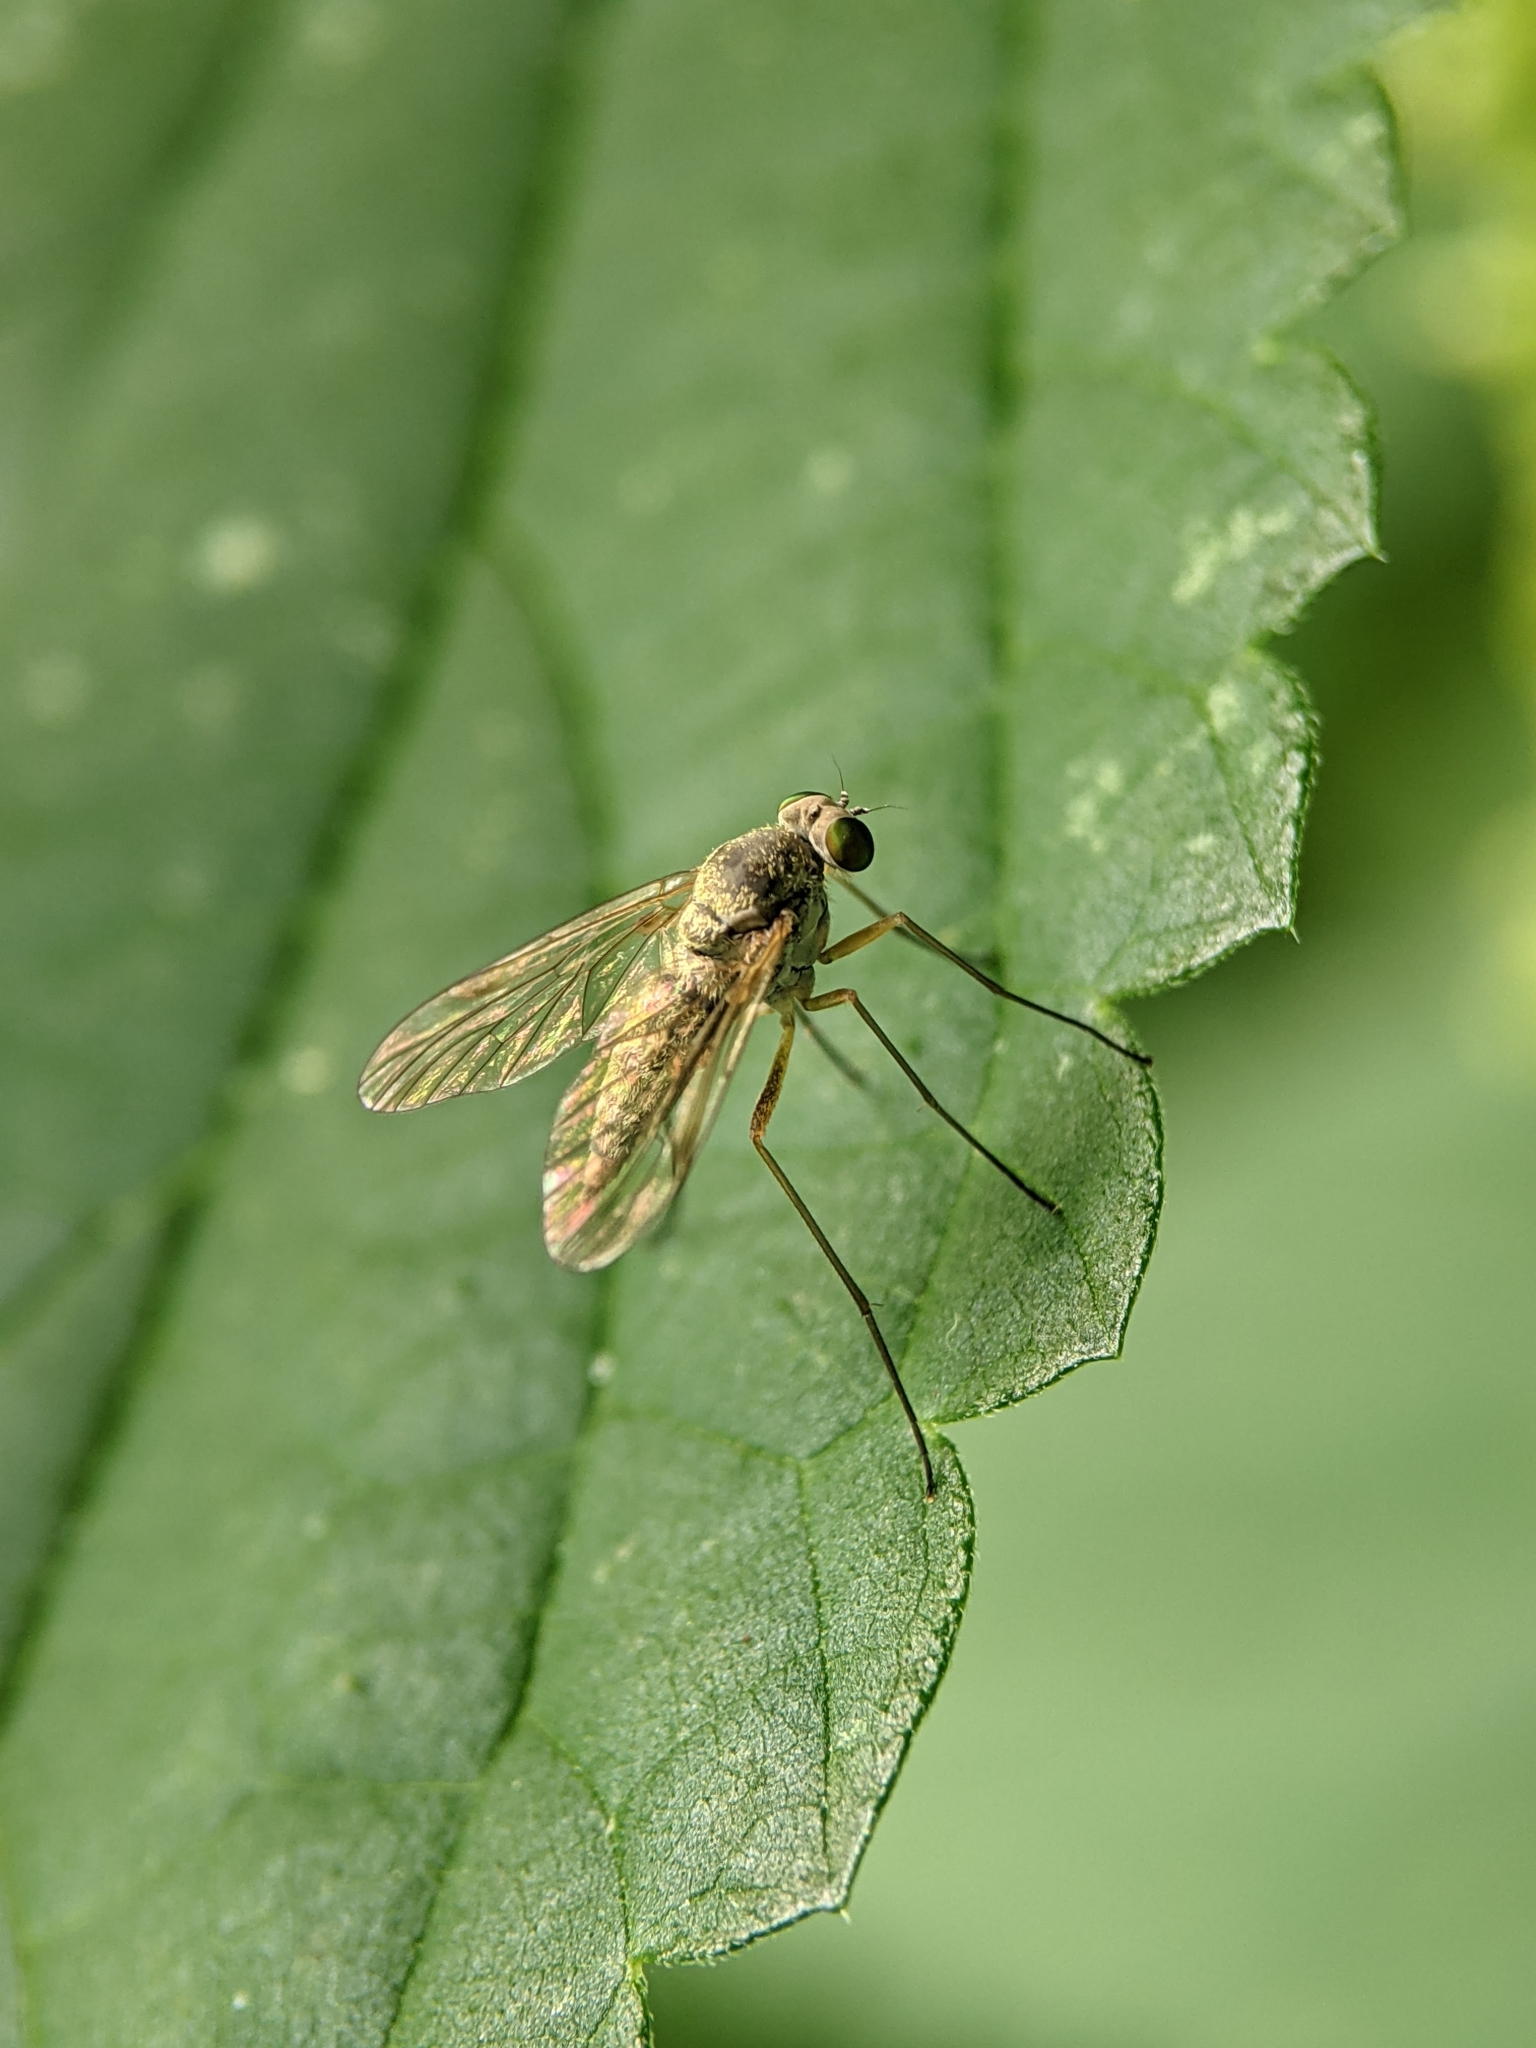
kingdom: Animalia
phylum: Arthropoda
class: Insecta
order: Diptera
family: Rhagionidae
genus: Chrysopilus
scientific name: Chrysopilus asiliformis
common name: Little snipefly
